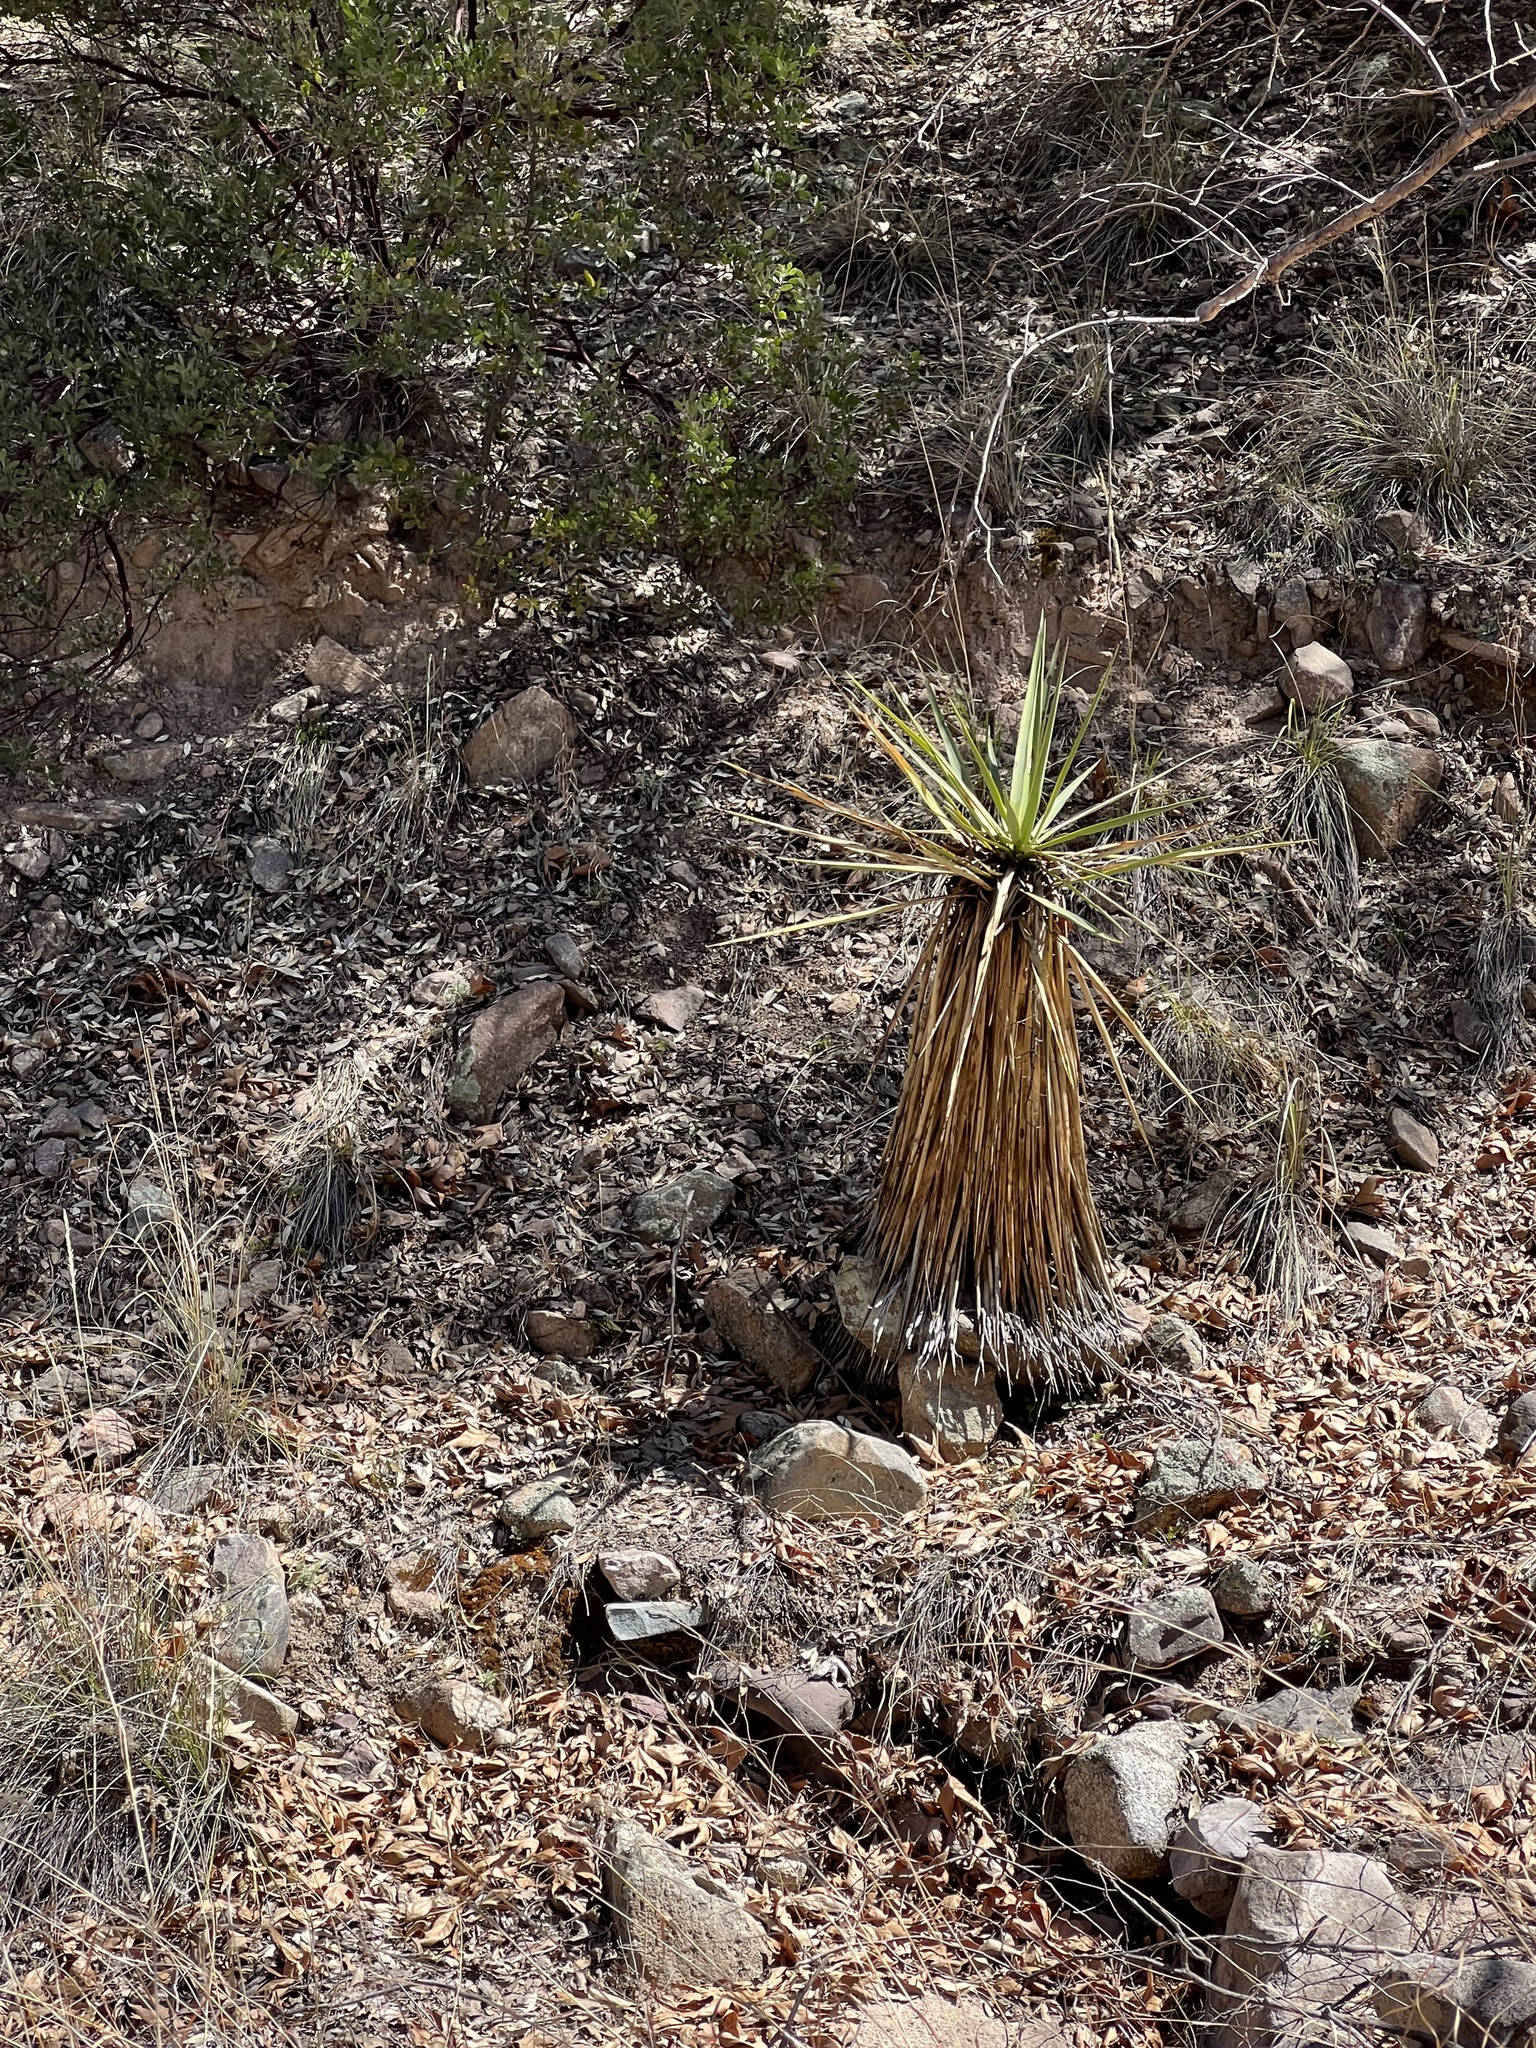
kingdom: Plantae
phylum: Tracheophyta
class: Liliopsida
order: Asparagales
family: Asparagaceae
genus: Yucca
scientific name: Yucca schottii
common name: Hoary yucca
